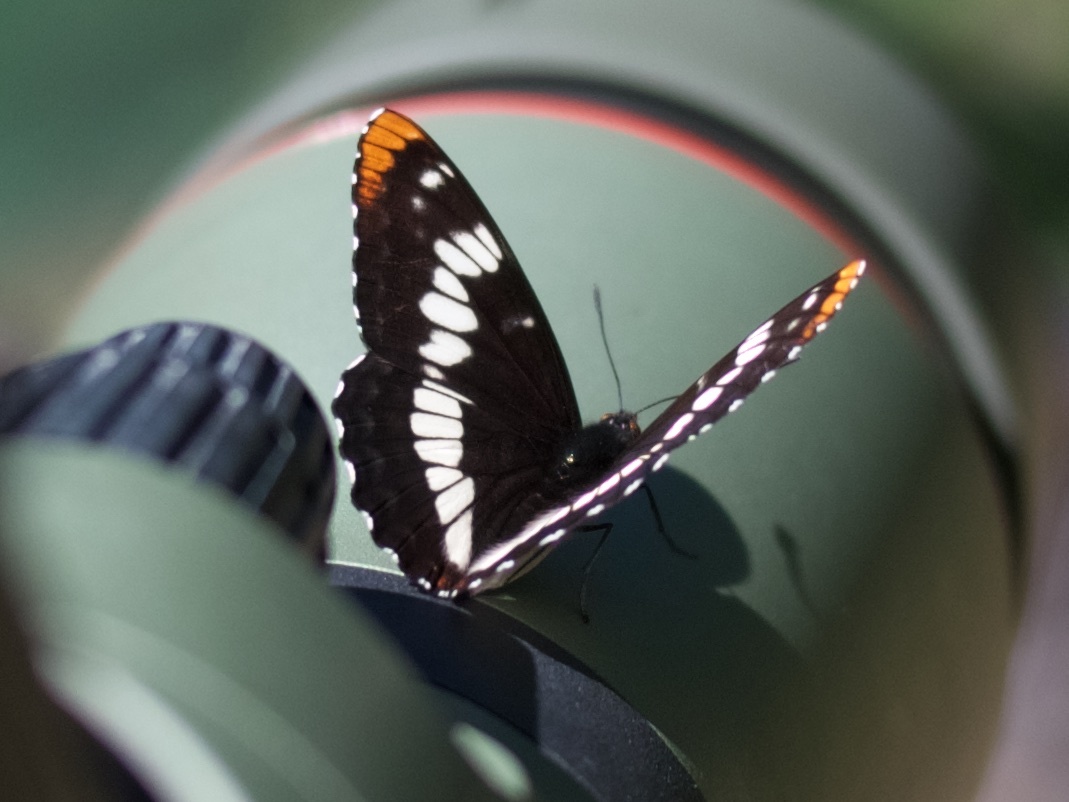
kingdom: Animalia
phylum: Arthropoda
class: Insecta
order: Lepidoptera
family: Nymphalidae
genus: Limenitis
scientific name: Limenitis lorquini
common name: Lorquin's admiral
